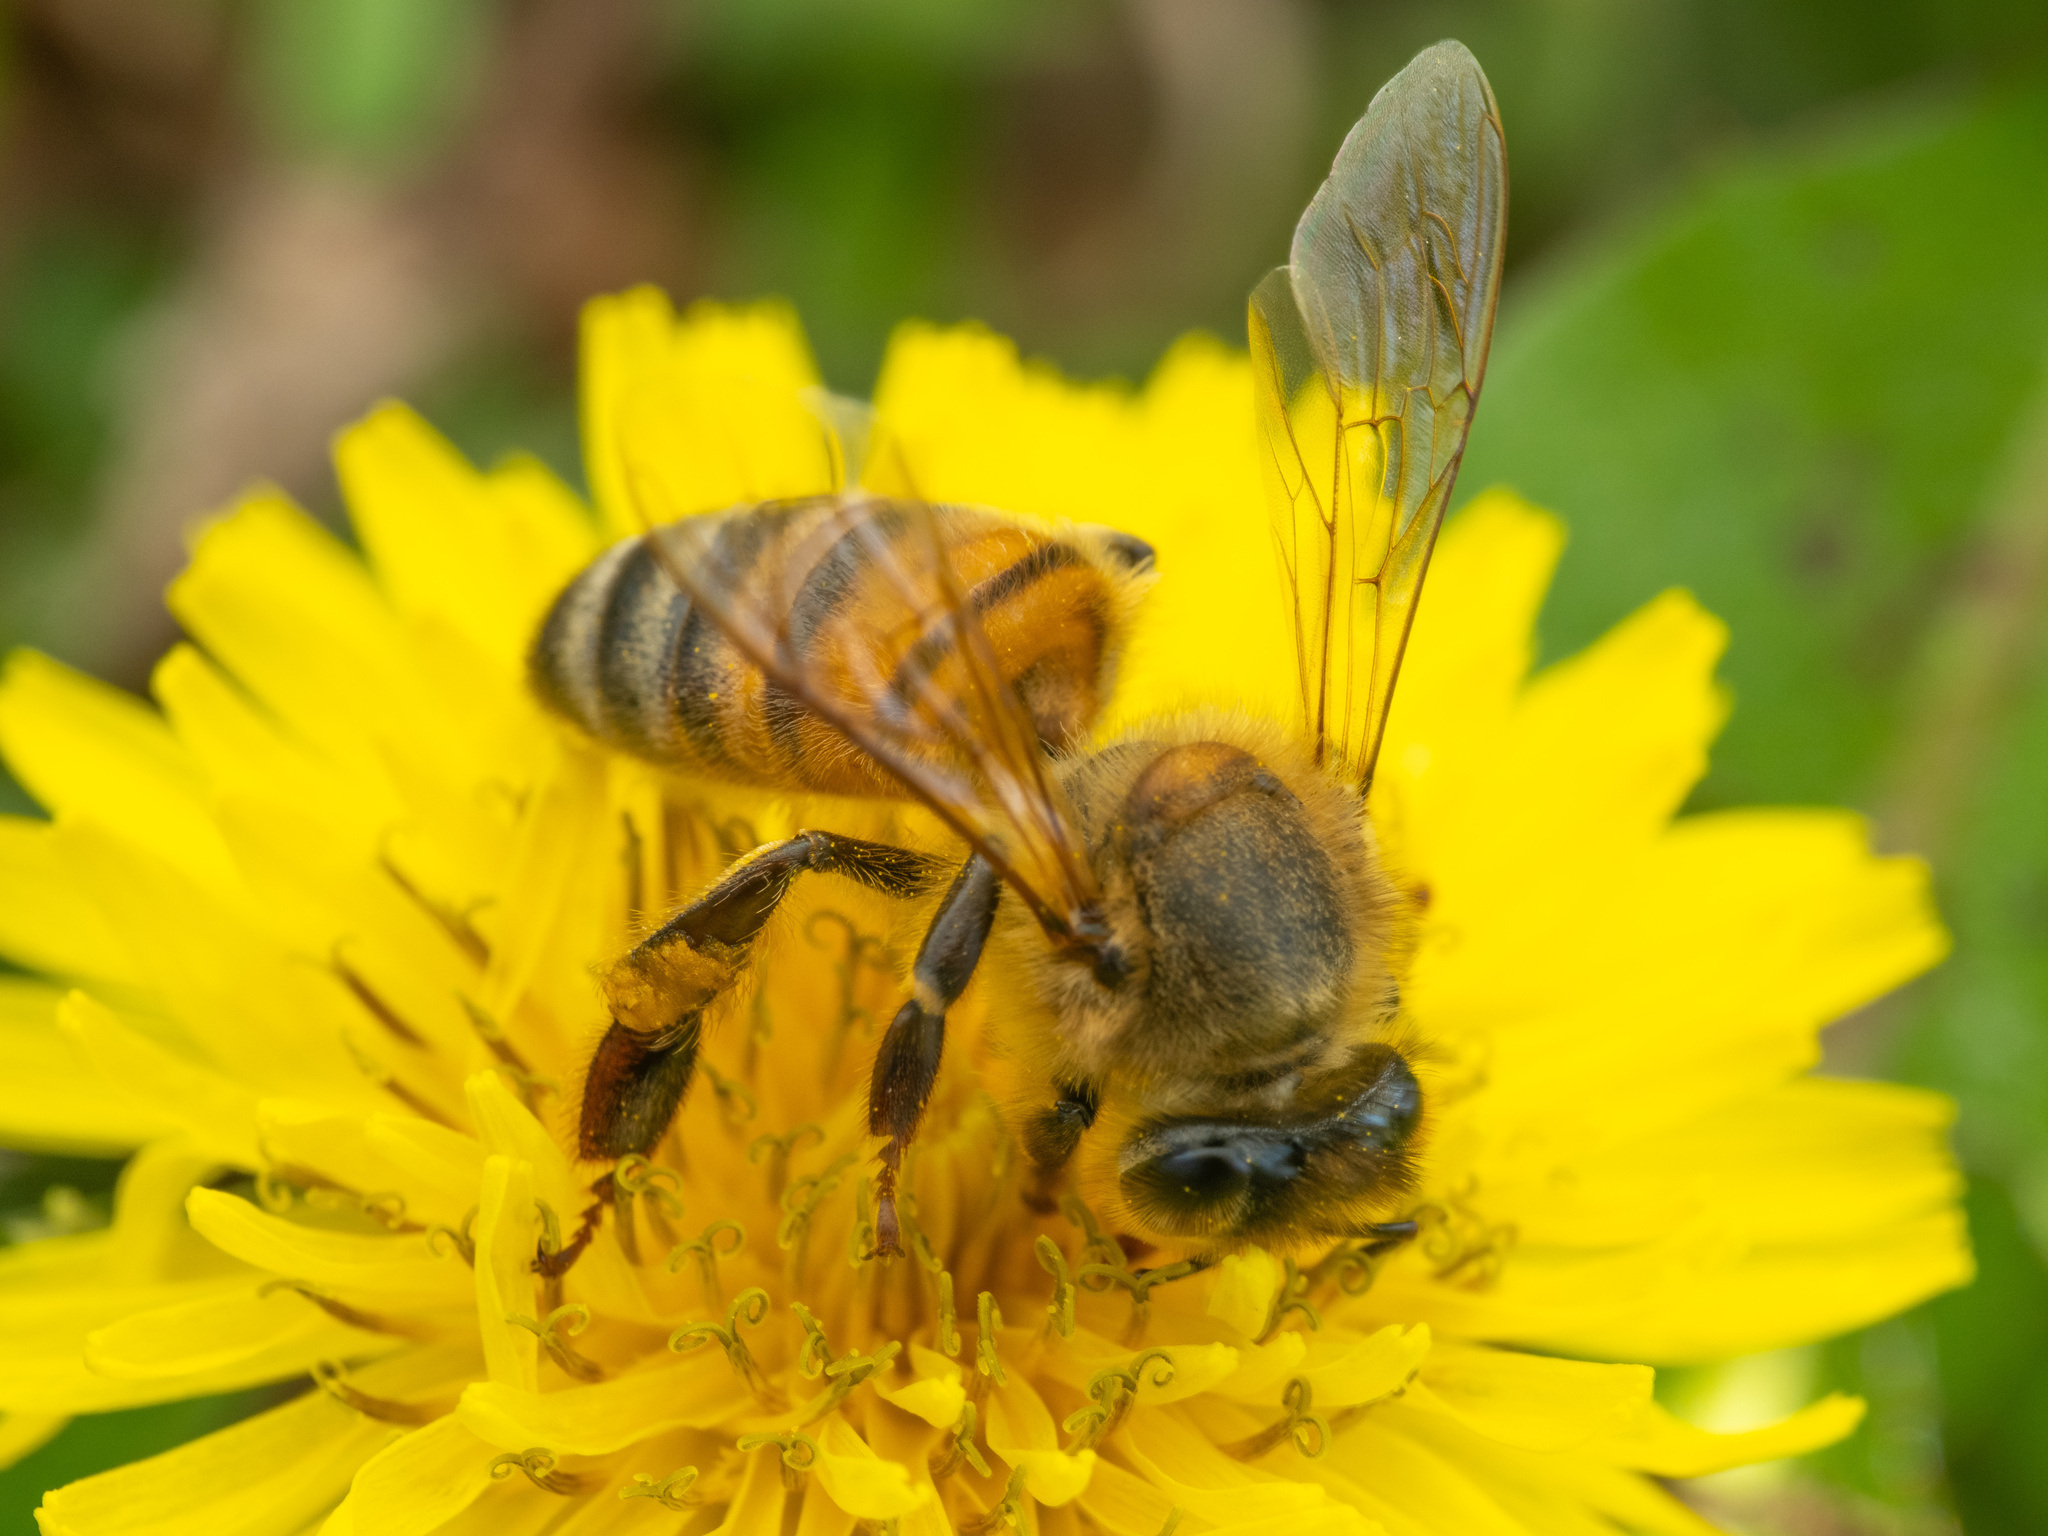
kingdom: Animalia
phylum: Arthropoda
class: Insecta
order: Hymenoptera
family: Apidae
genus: Apis
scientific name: Apis mellifera
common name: Honey bee
